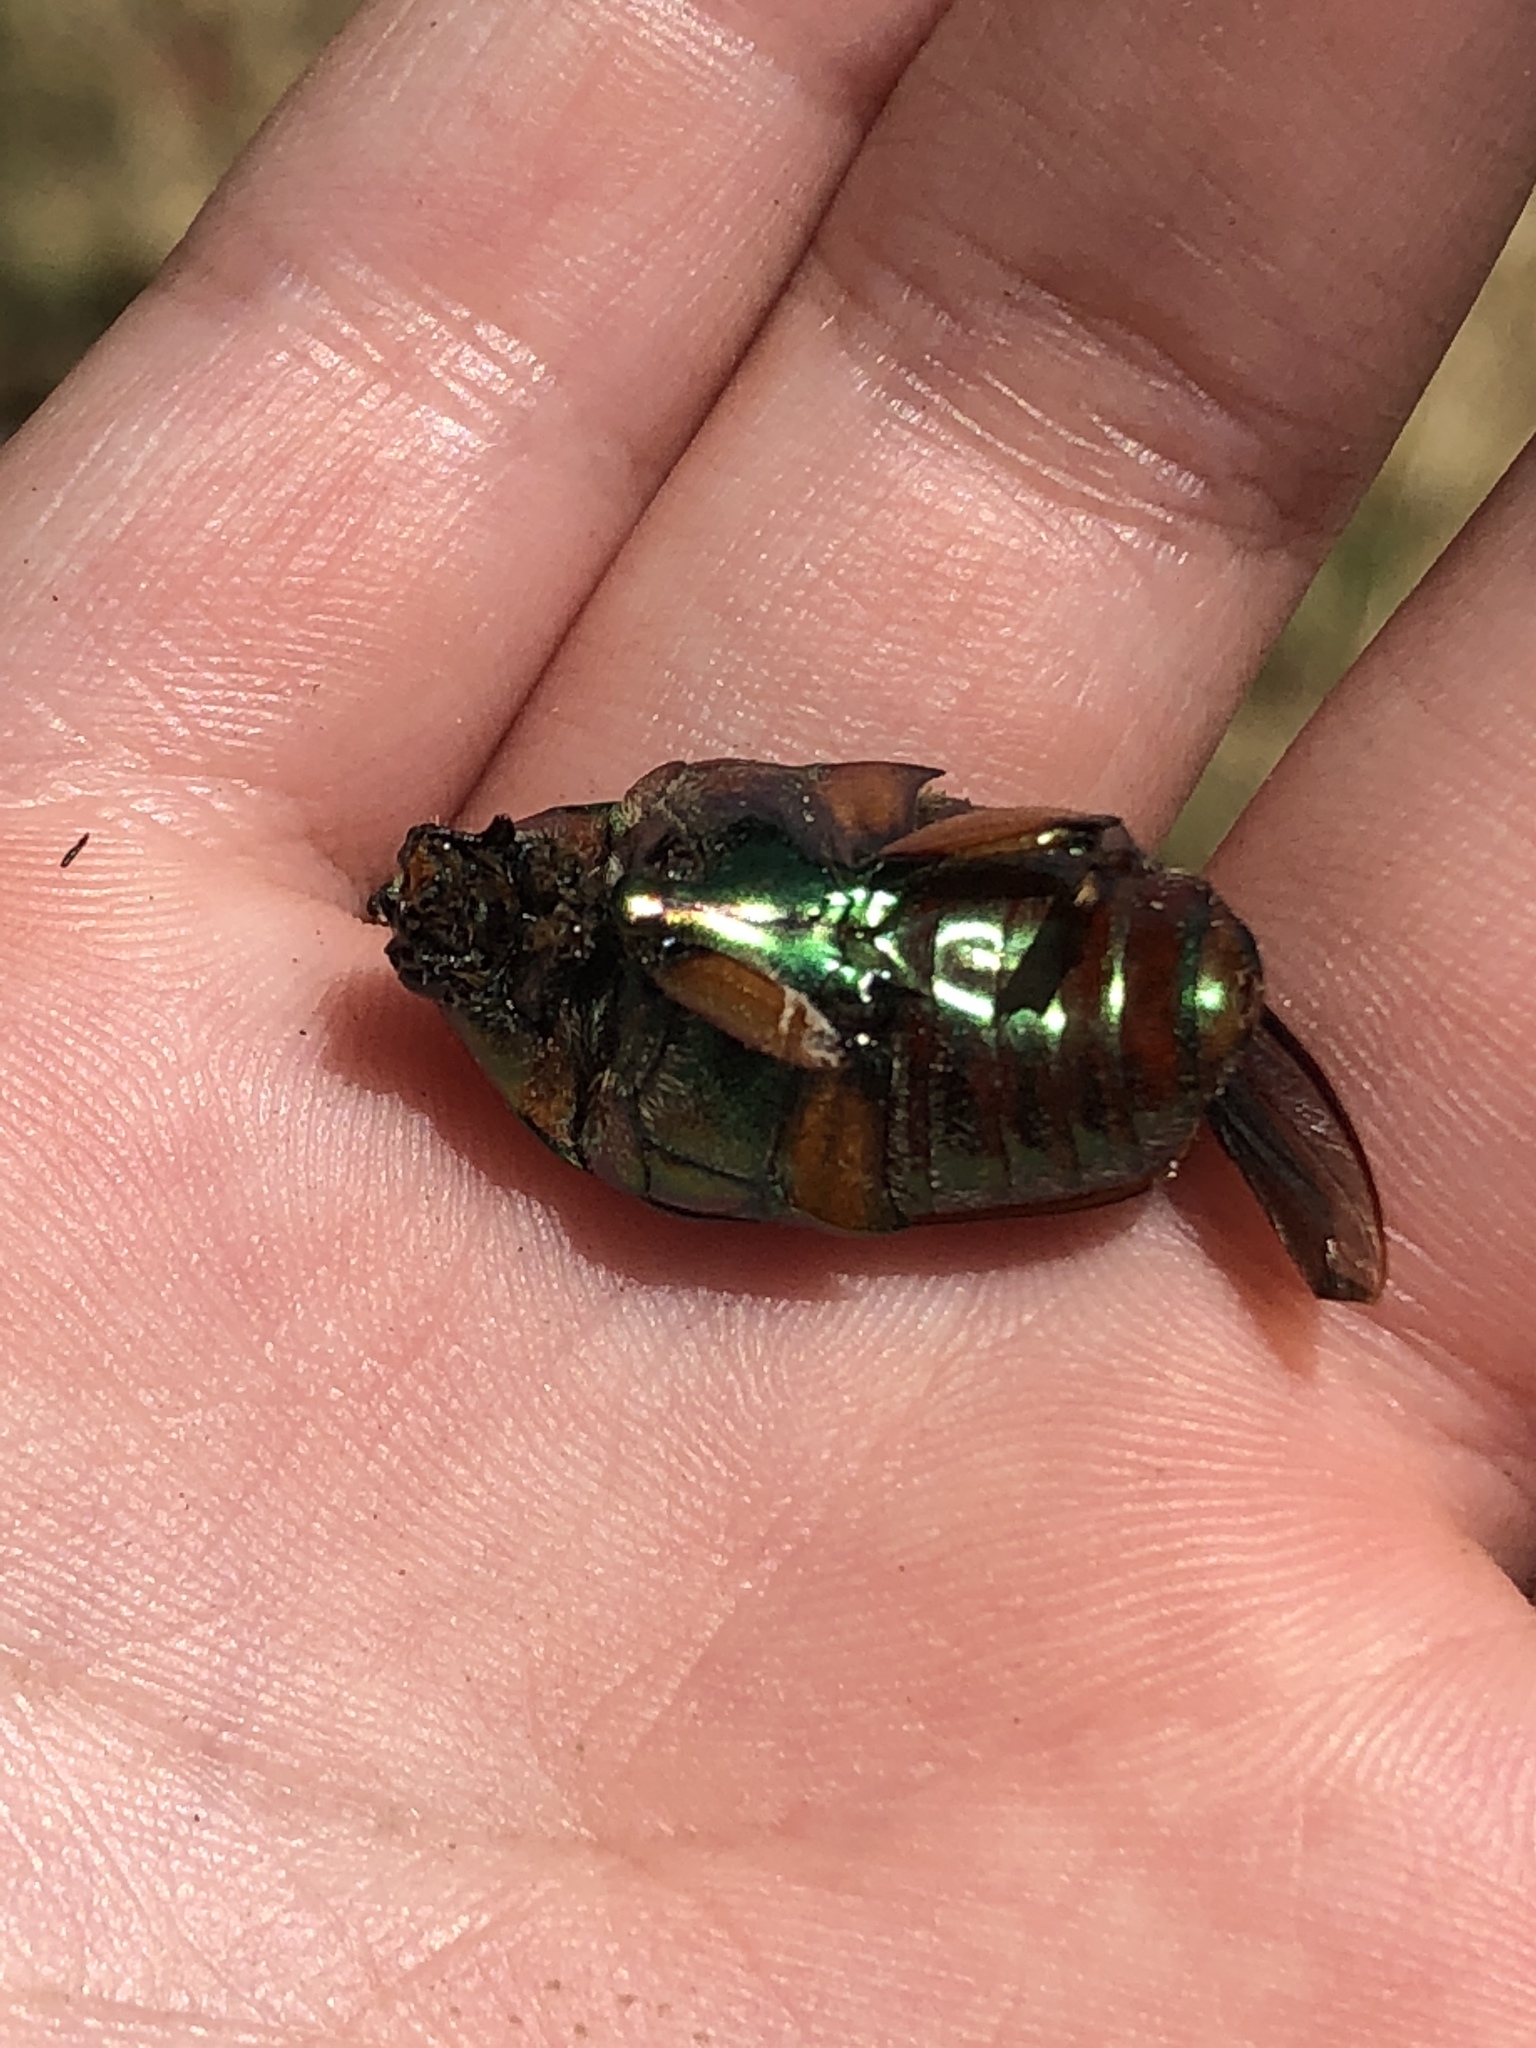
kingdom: Animalia
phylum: Arthropoda
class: Insecta
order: Coleoptera
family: Scarabaeidae
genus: Cotinis
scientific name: Cotinis nitida
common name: Common green june beetle
